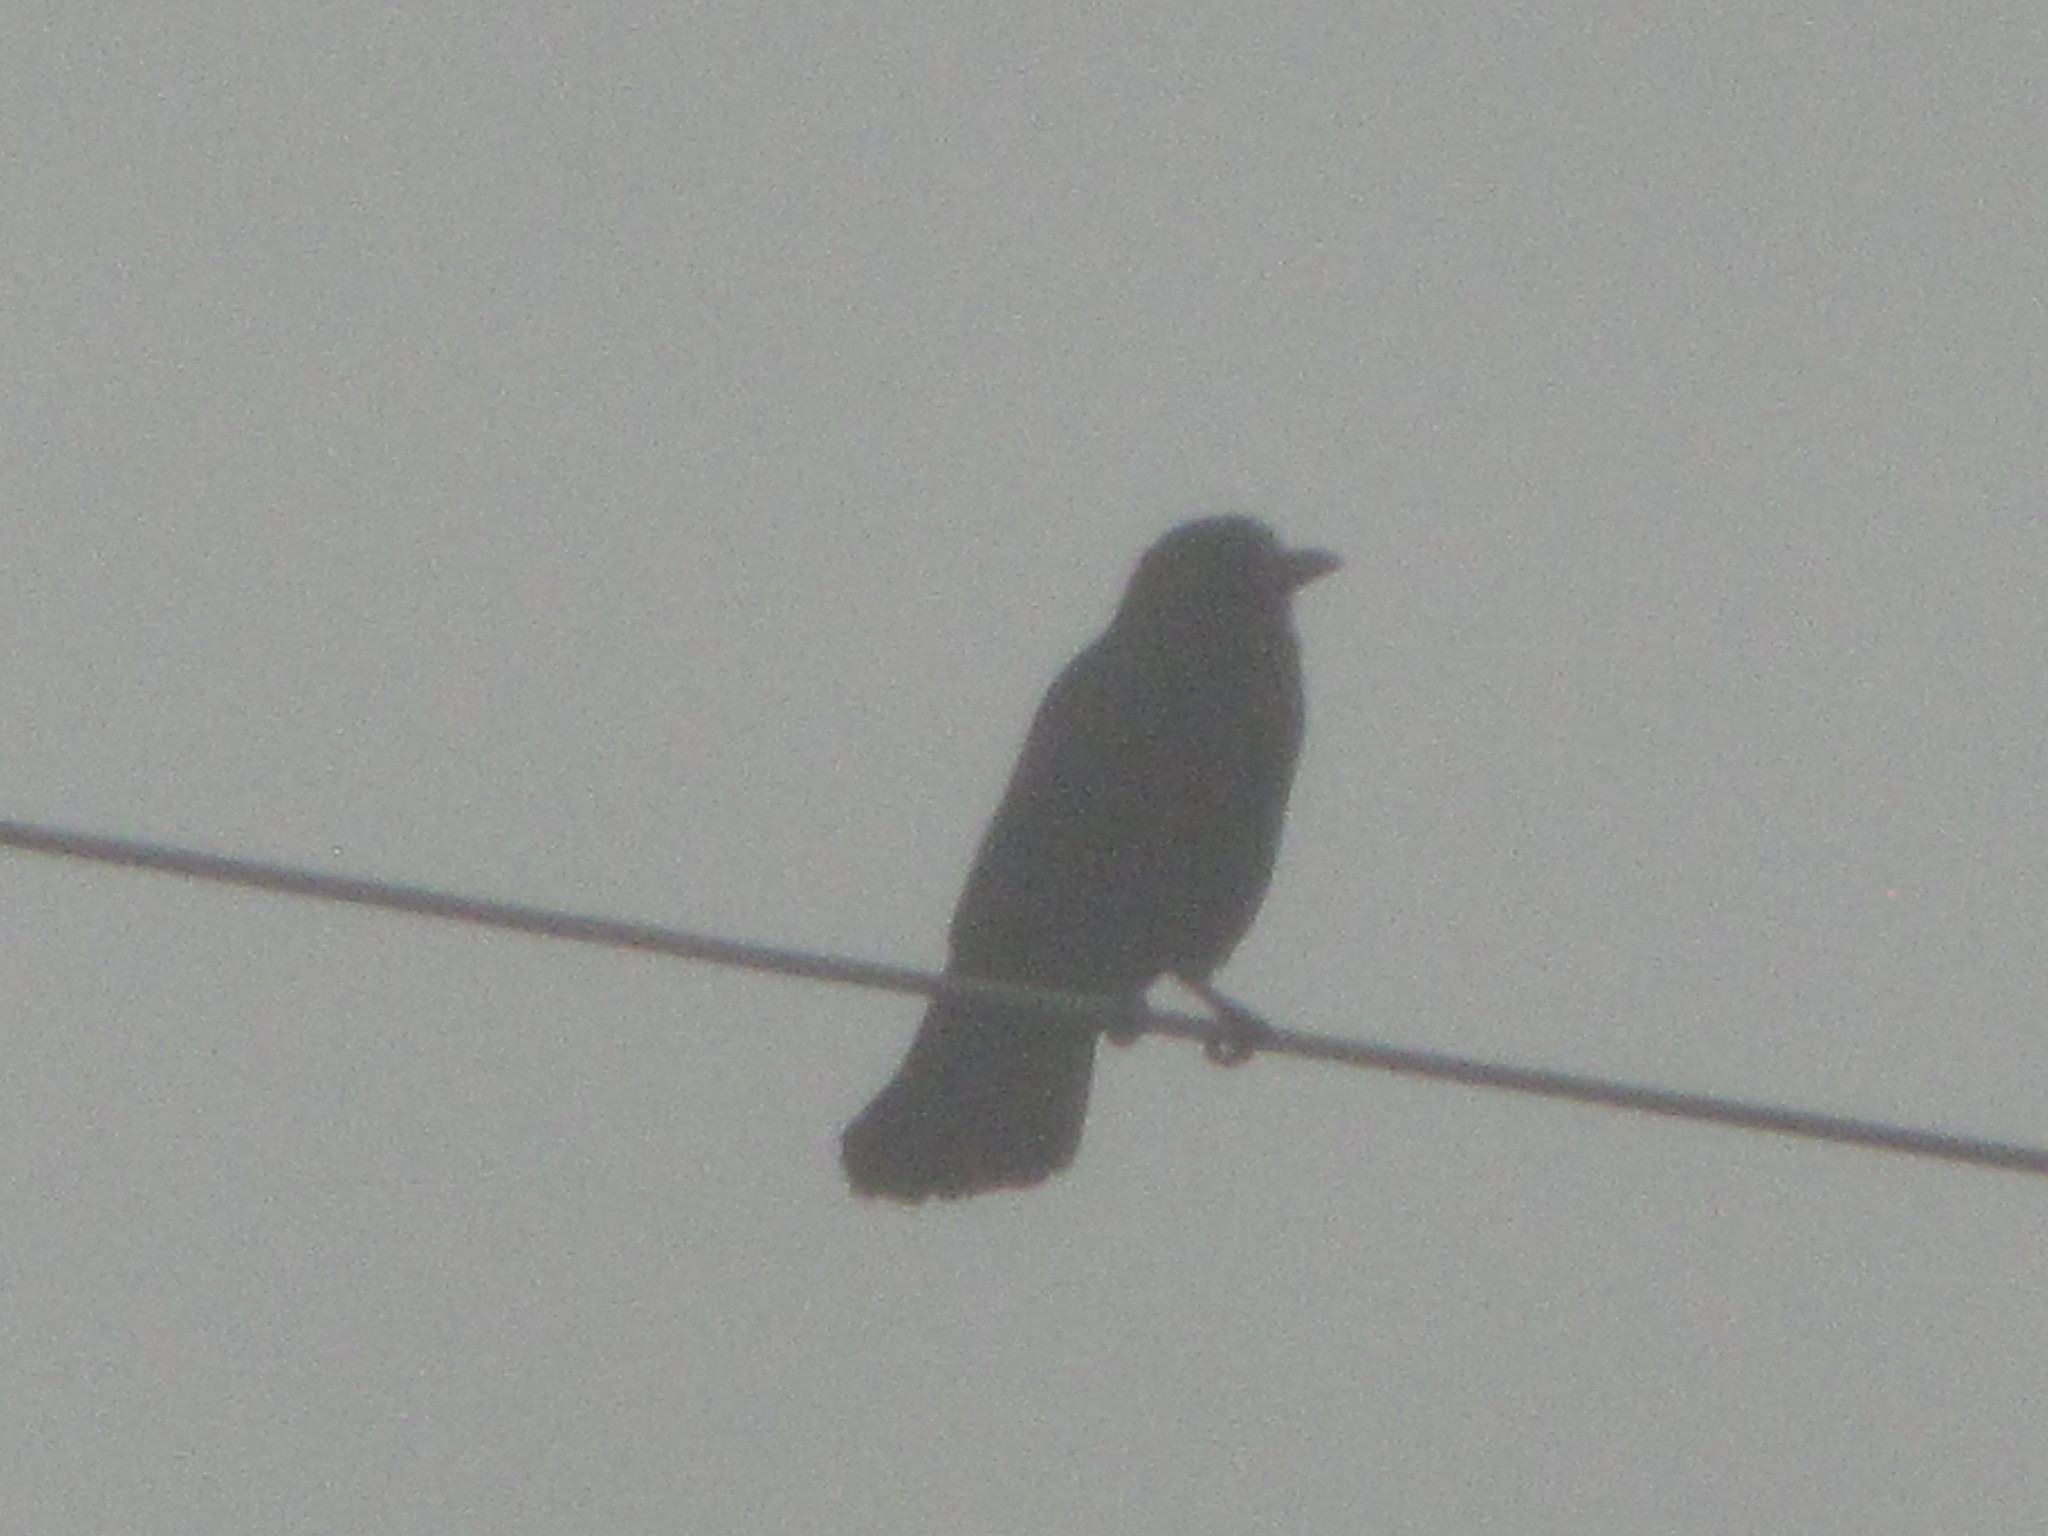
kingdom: Animalia
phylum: Chordata
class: Aves
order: Passeriformes
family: Corvidae
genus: Corvus
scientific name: Corvus brachyrhynchos
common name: American crow
